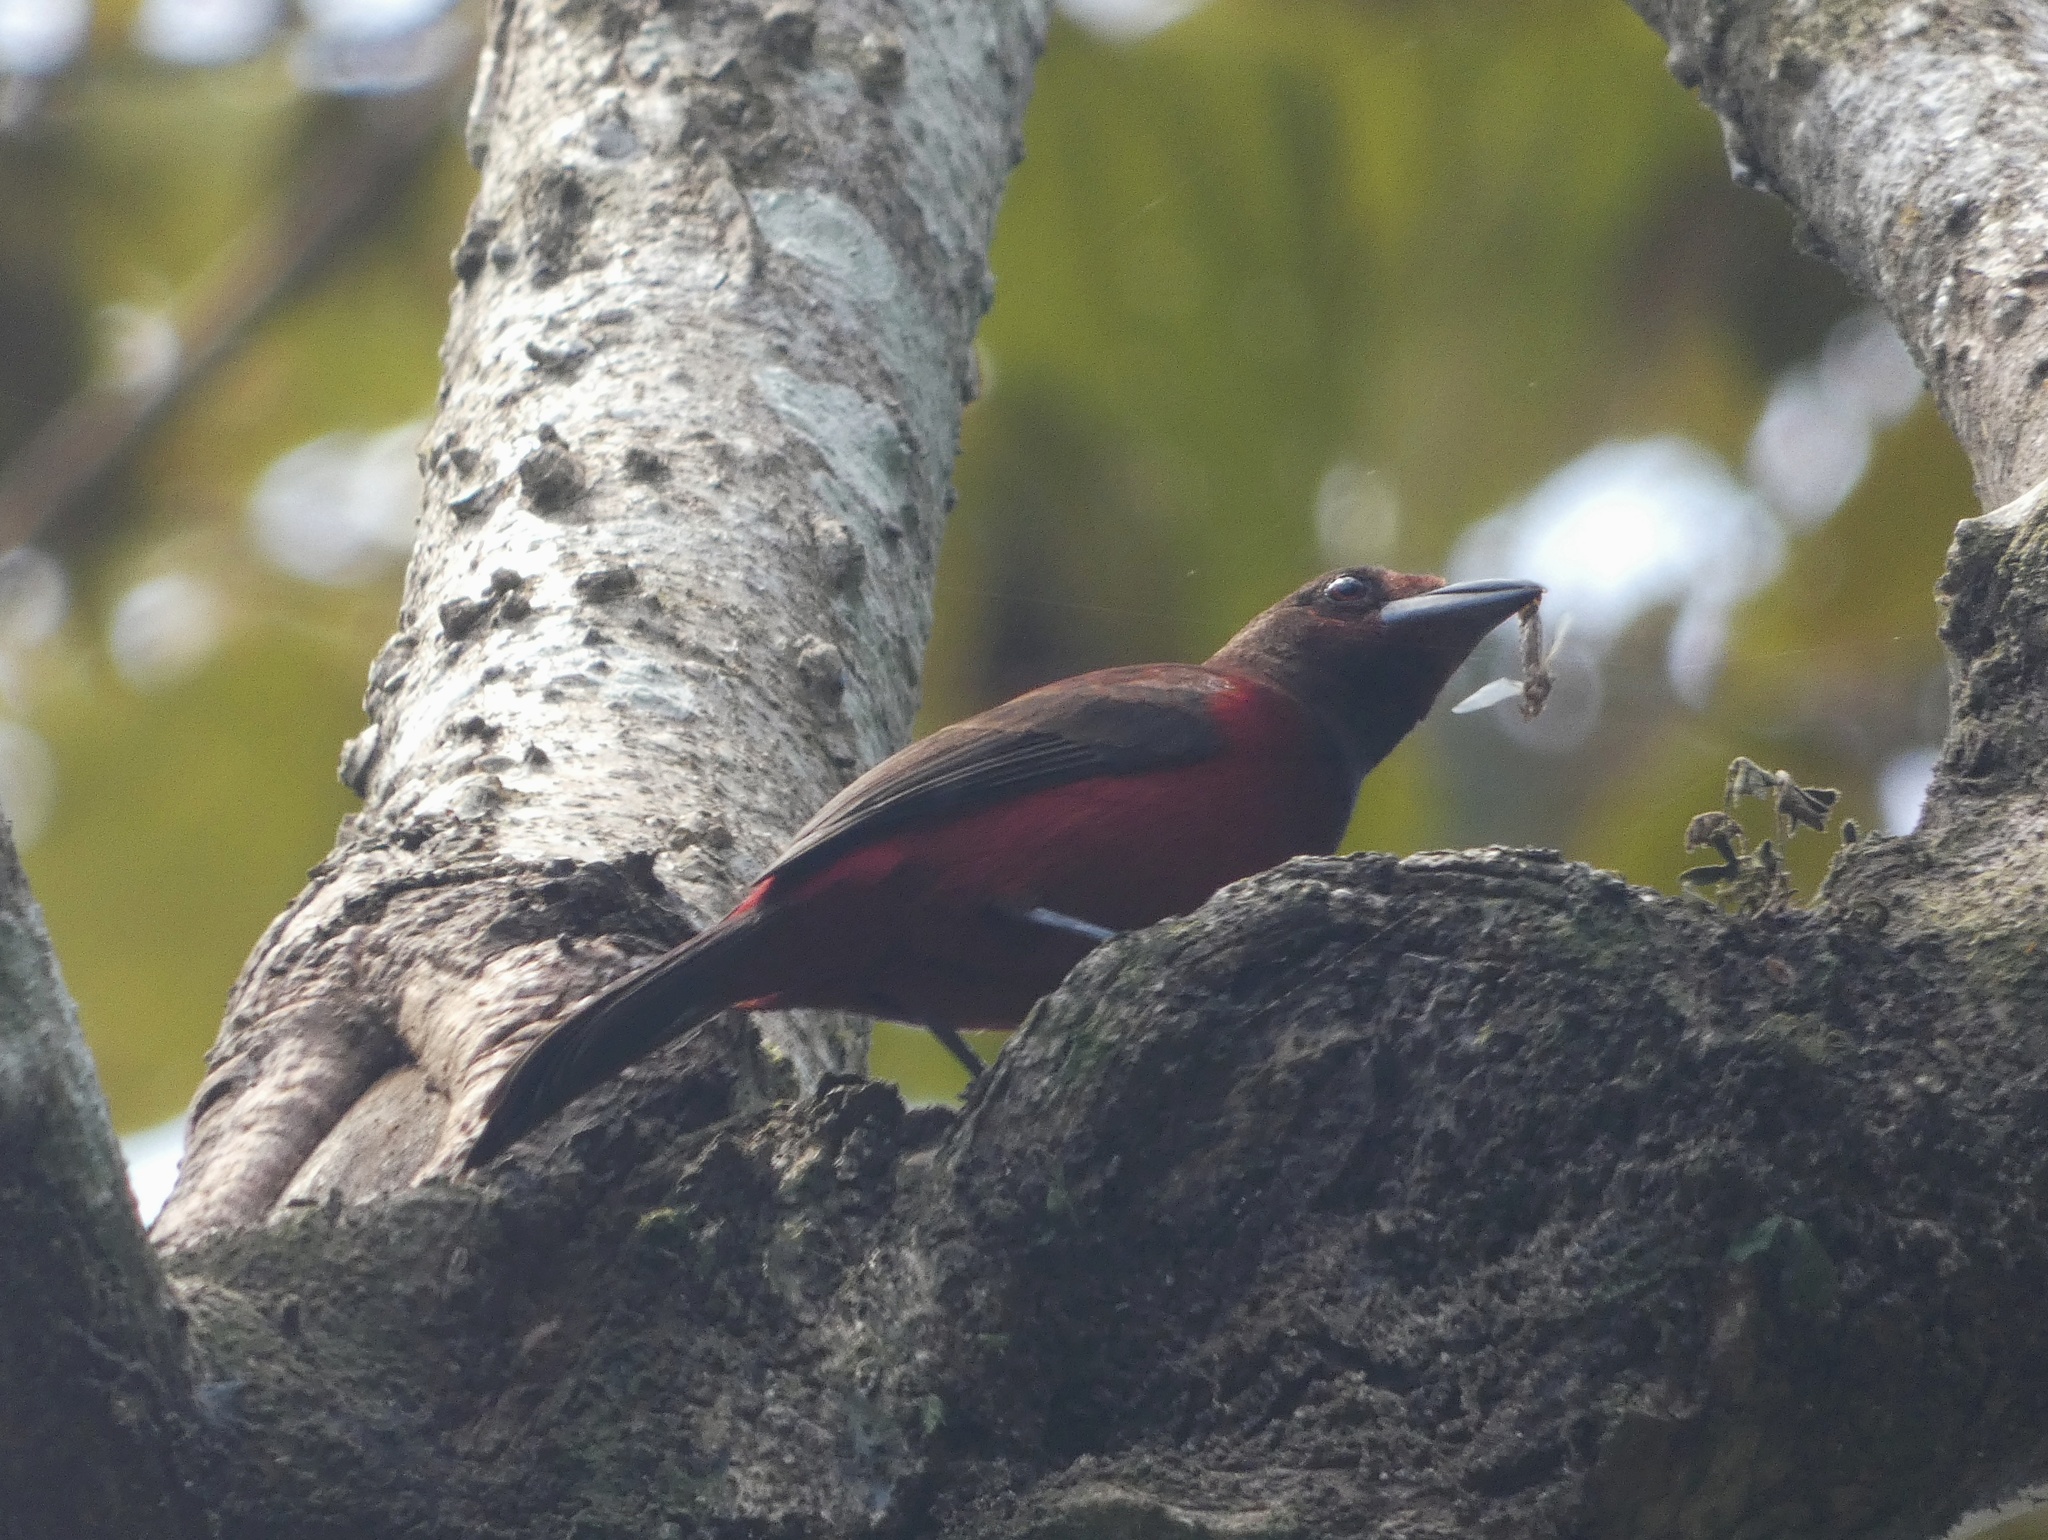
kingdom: Animalia
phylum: Chordata
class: Aves
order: Passeriformes
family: Thraupidae
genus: Ramphocelus
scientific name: Ramphocelus dimidiatus
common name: Crimson-backed tanager
